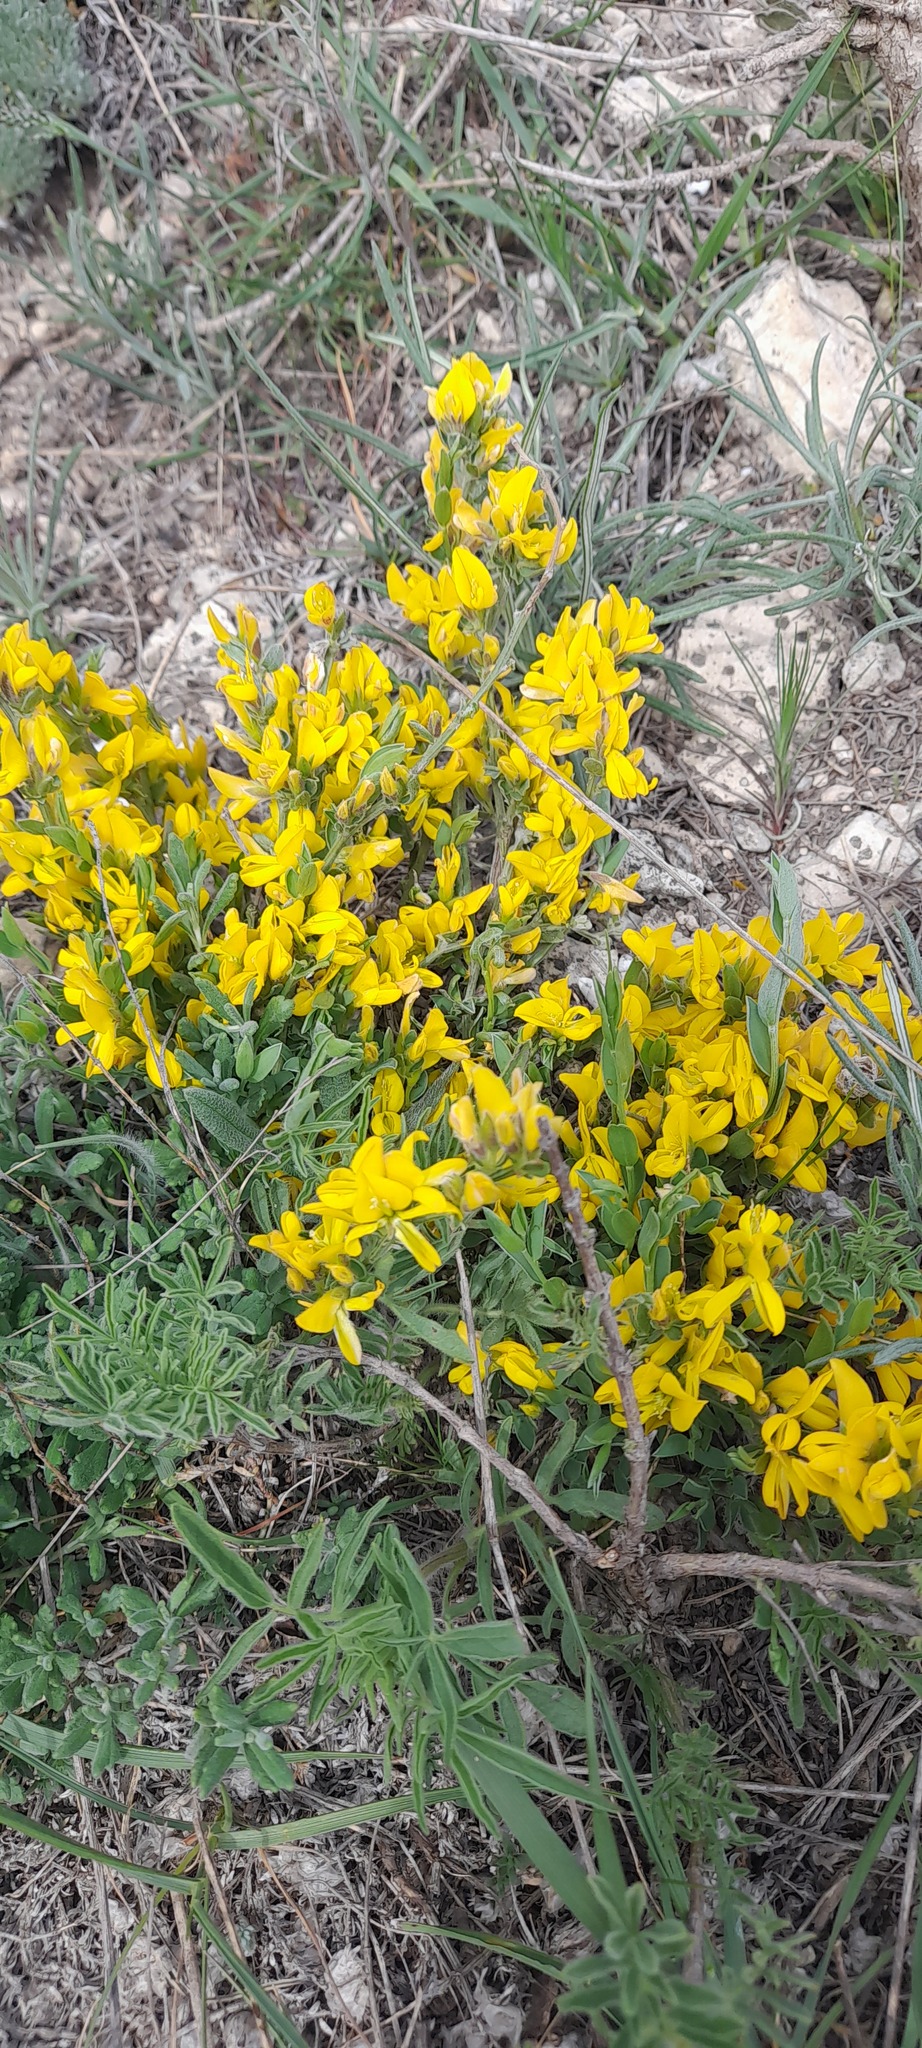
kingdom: Plantae
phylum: Tracheophyta
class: Magnoliopsida
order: Fabales
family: Fabaceae
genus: Genista
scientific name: Genista albida
